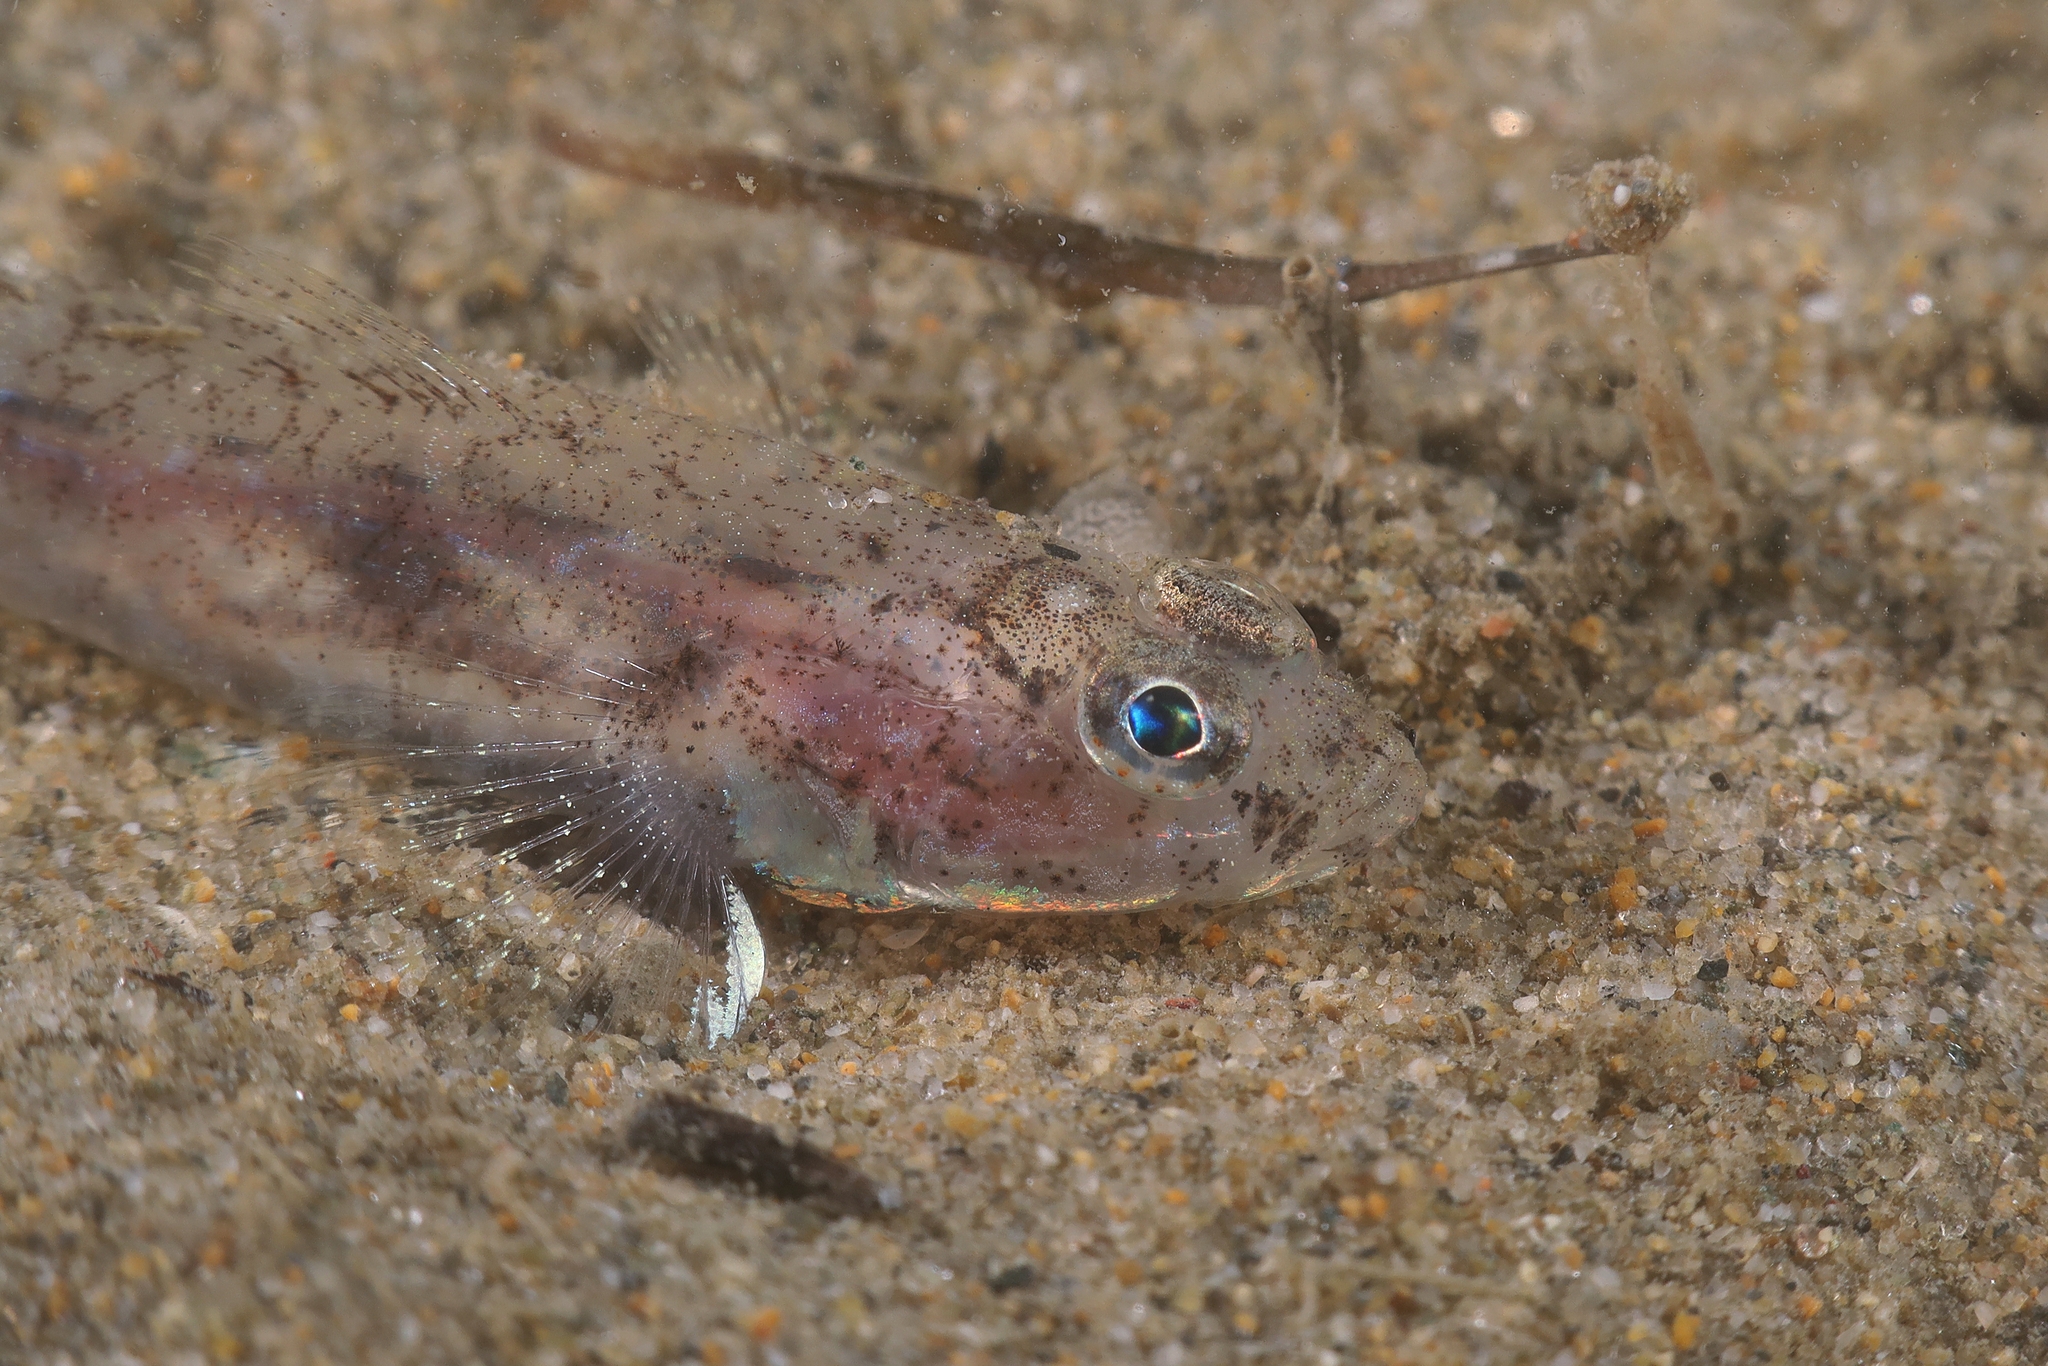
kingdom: Animalia
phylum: Chordata
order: Perciformes
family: Gobiidae
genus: Pomatoschistus
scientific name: Pomatoschistus marmoratus
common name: Marbled goby
